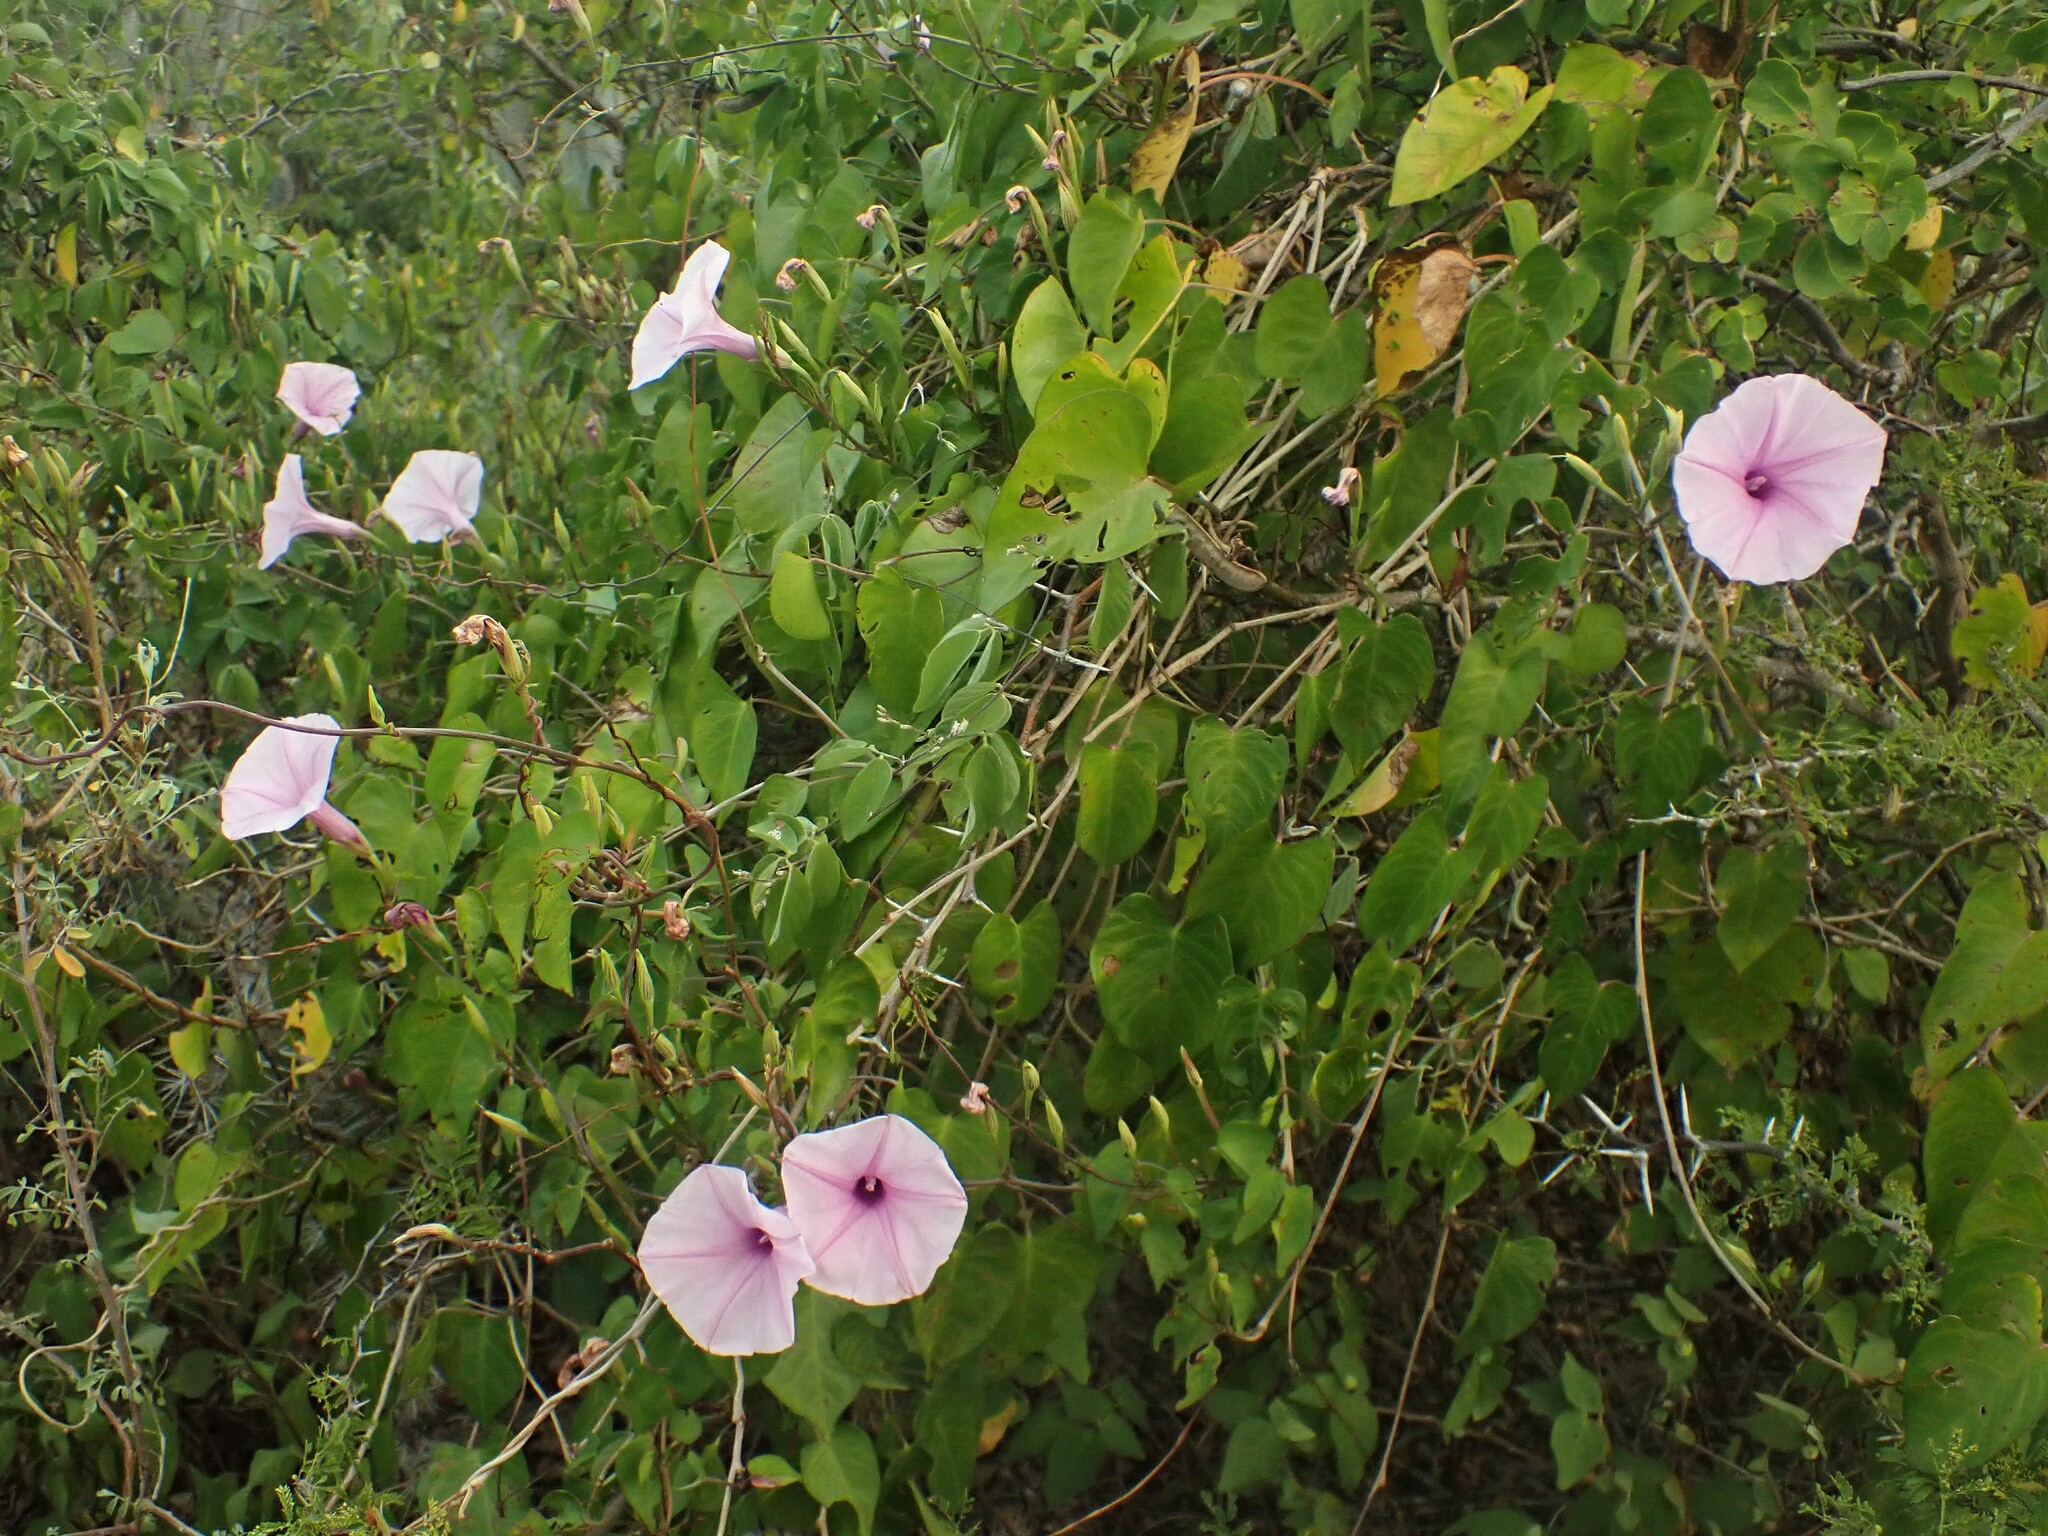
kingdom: Plantae
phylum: Tracheophyta
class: Magnoliopsida
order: Solanales
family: Convolvulaceae
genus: Ipomoea
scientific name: Ipomoea incarnata
